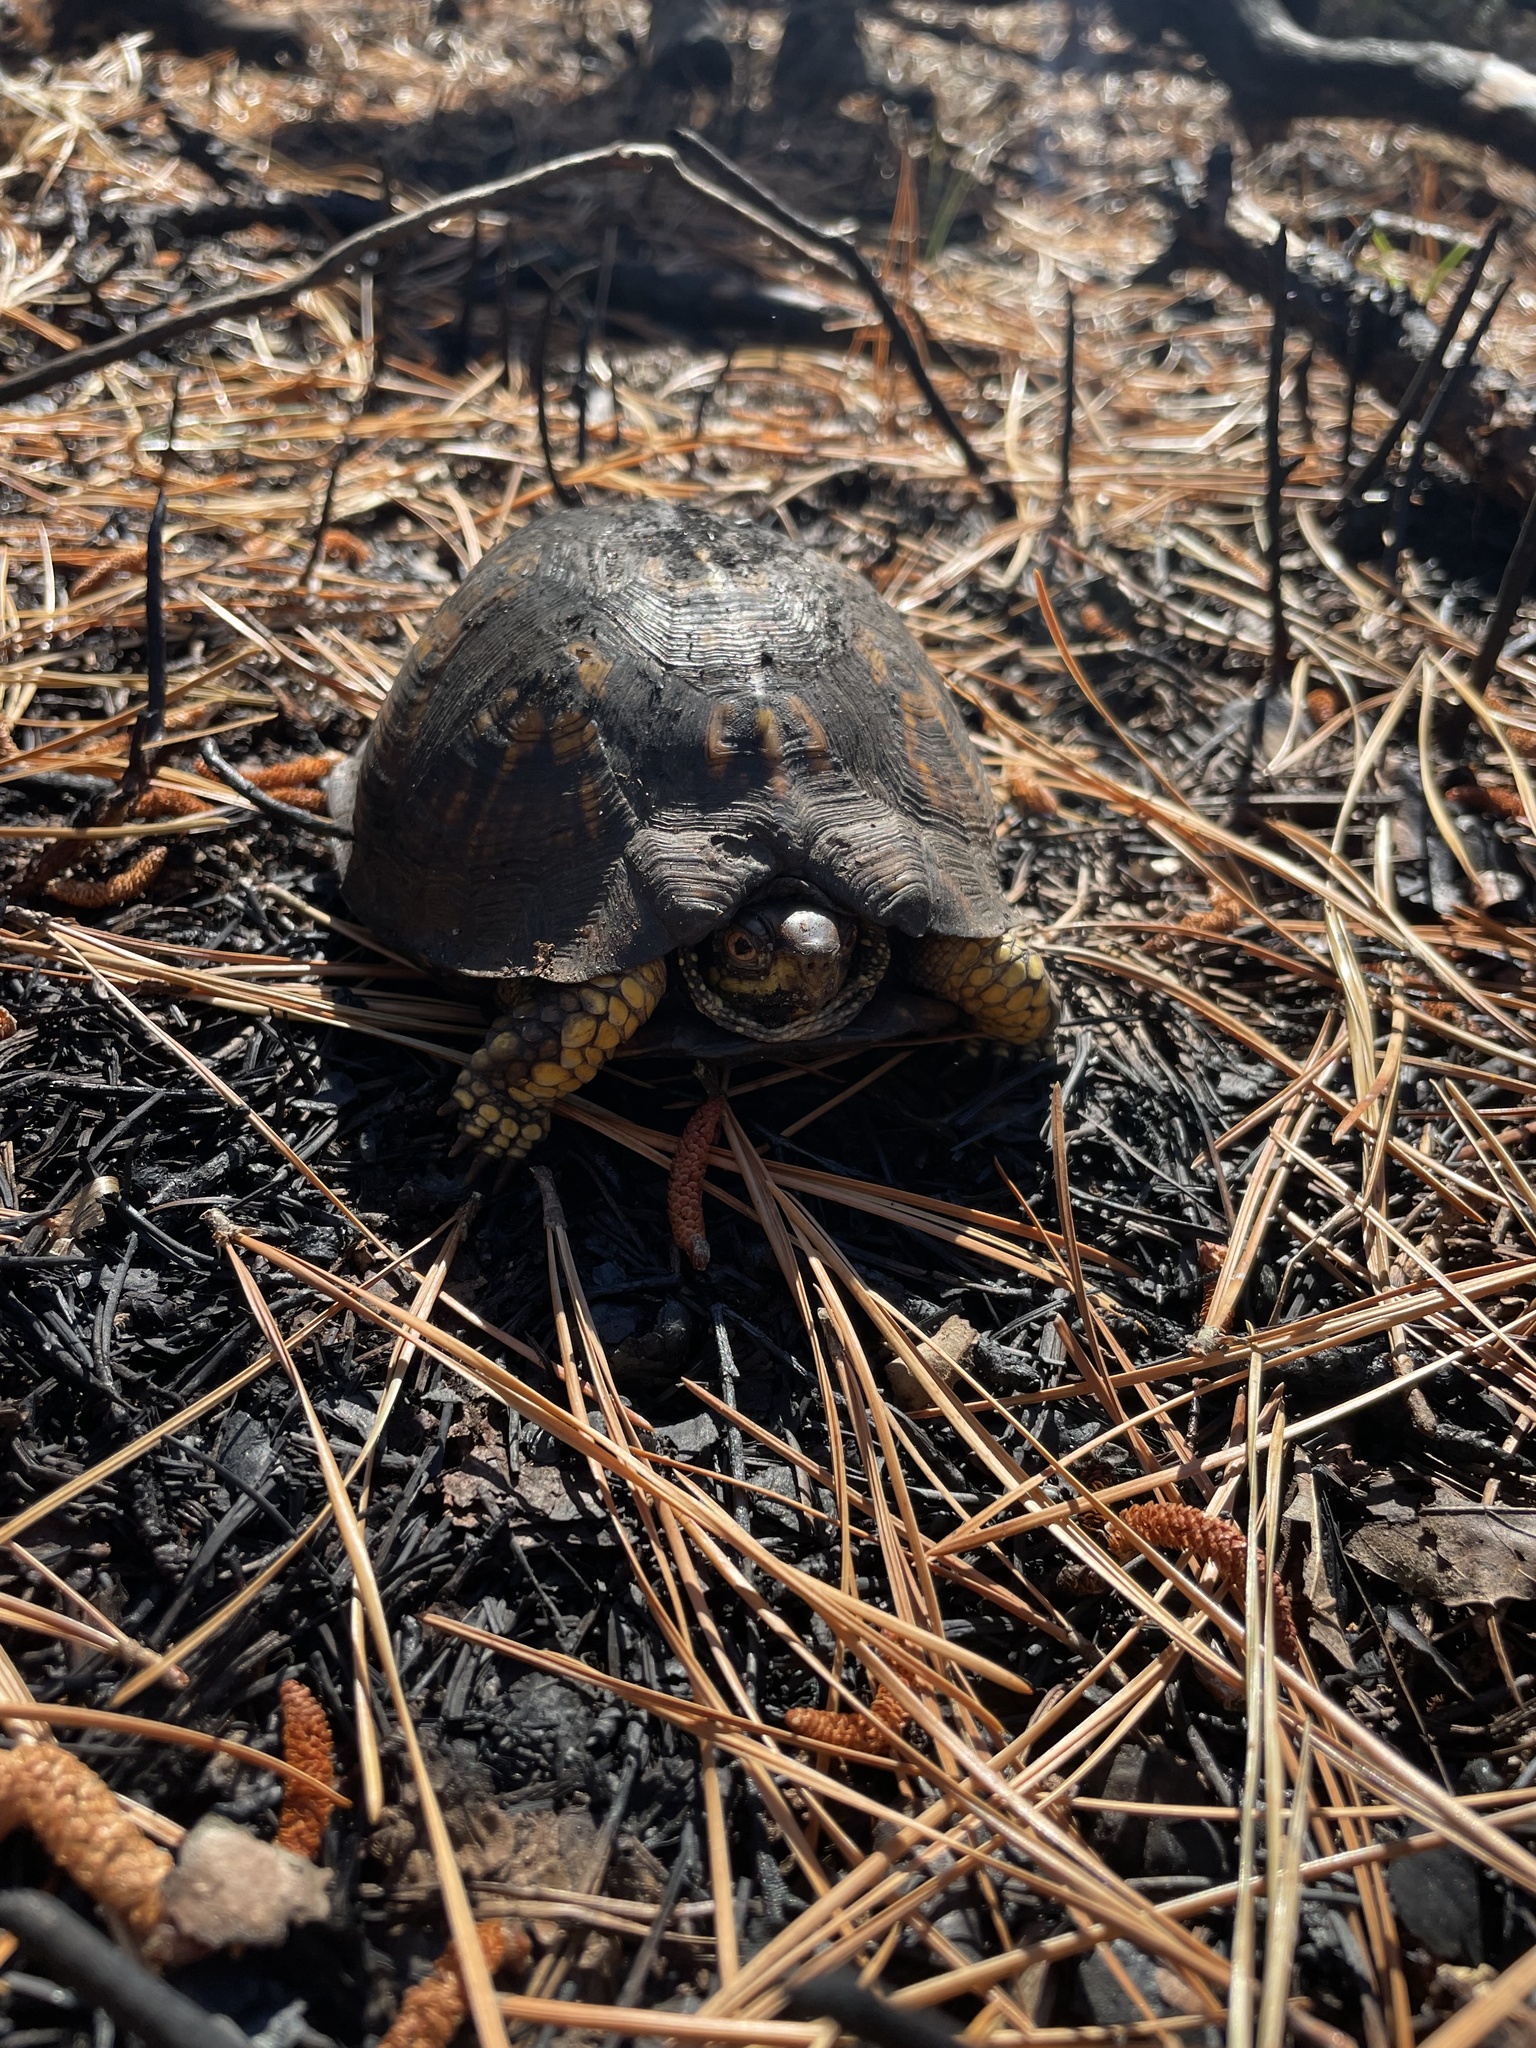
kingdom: Animalia
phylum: Chordata
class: Testudines
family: Emydidae
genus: Terrapene
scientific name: Terrapene carolina
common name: Common box turtle
